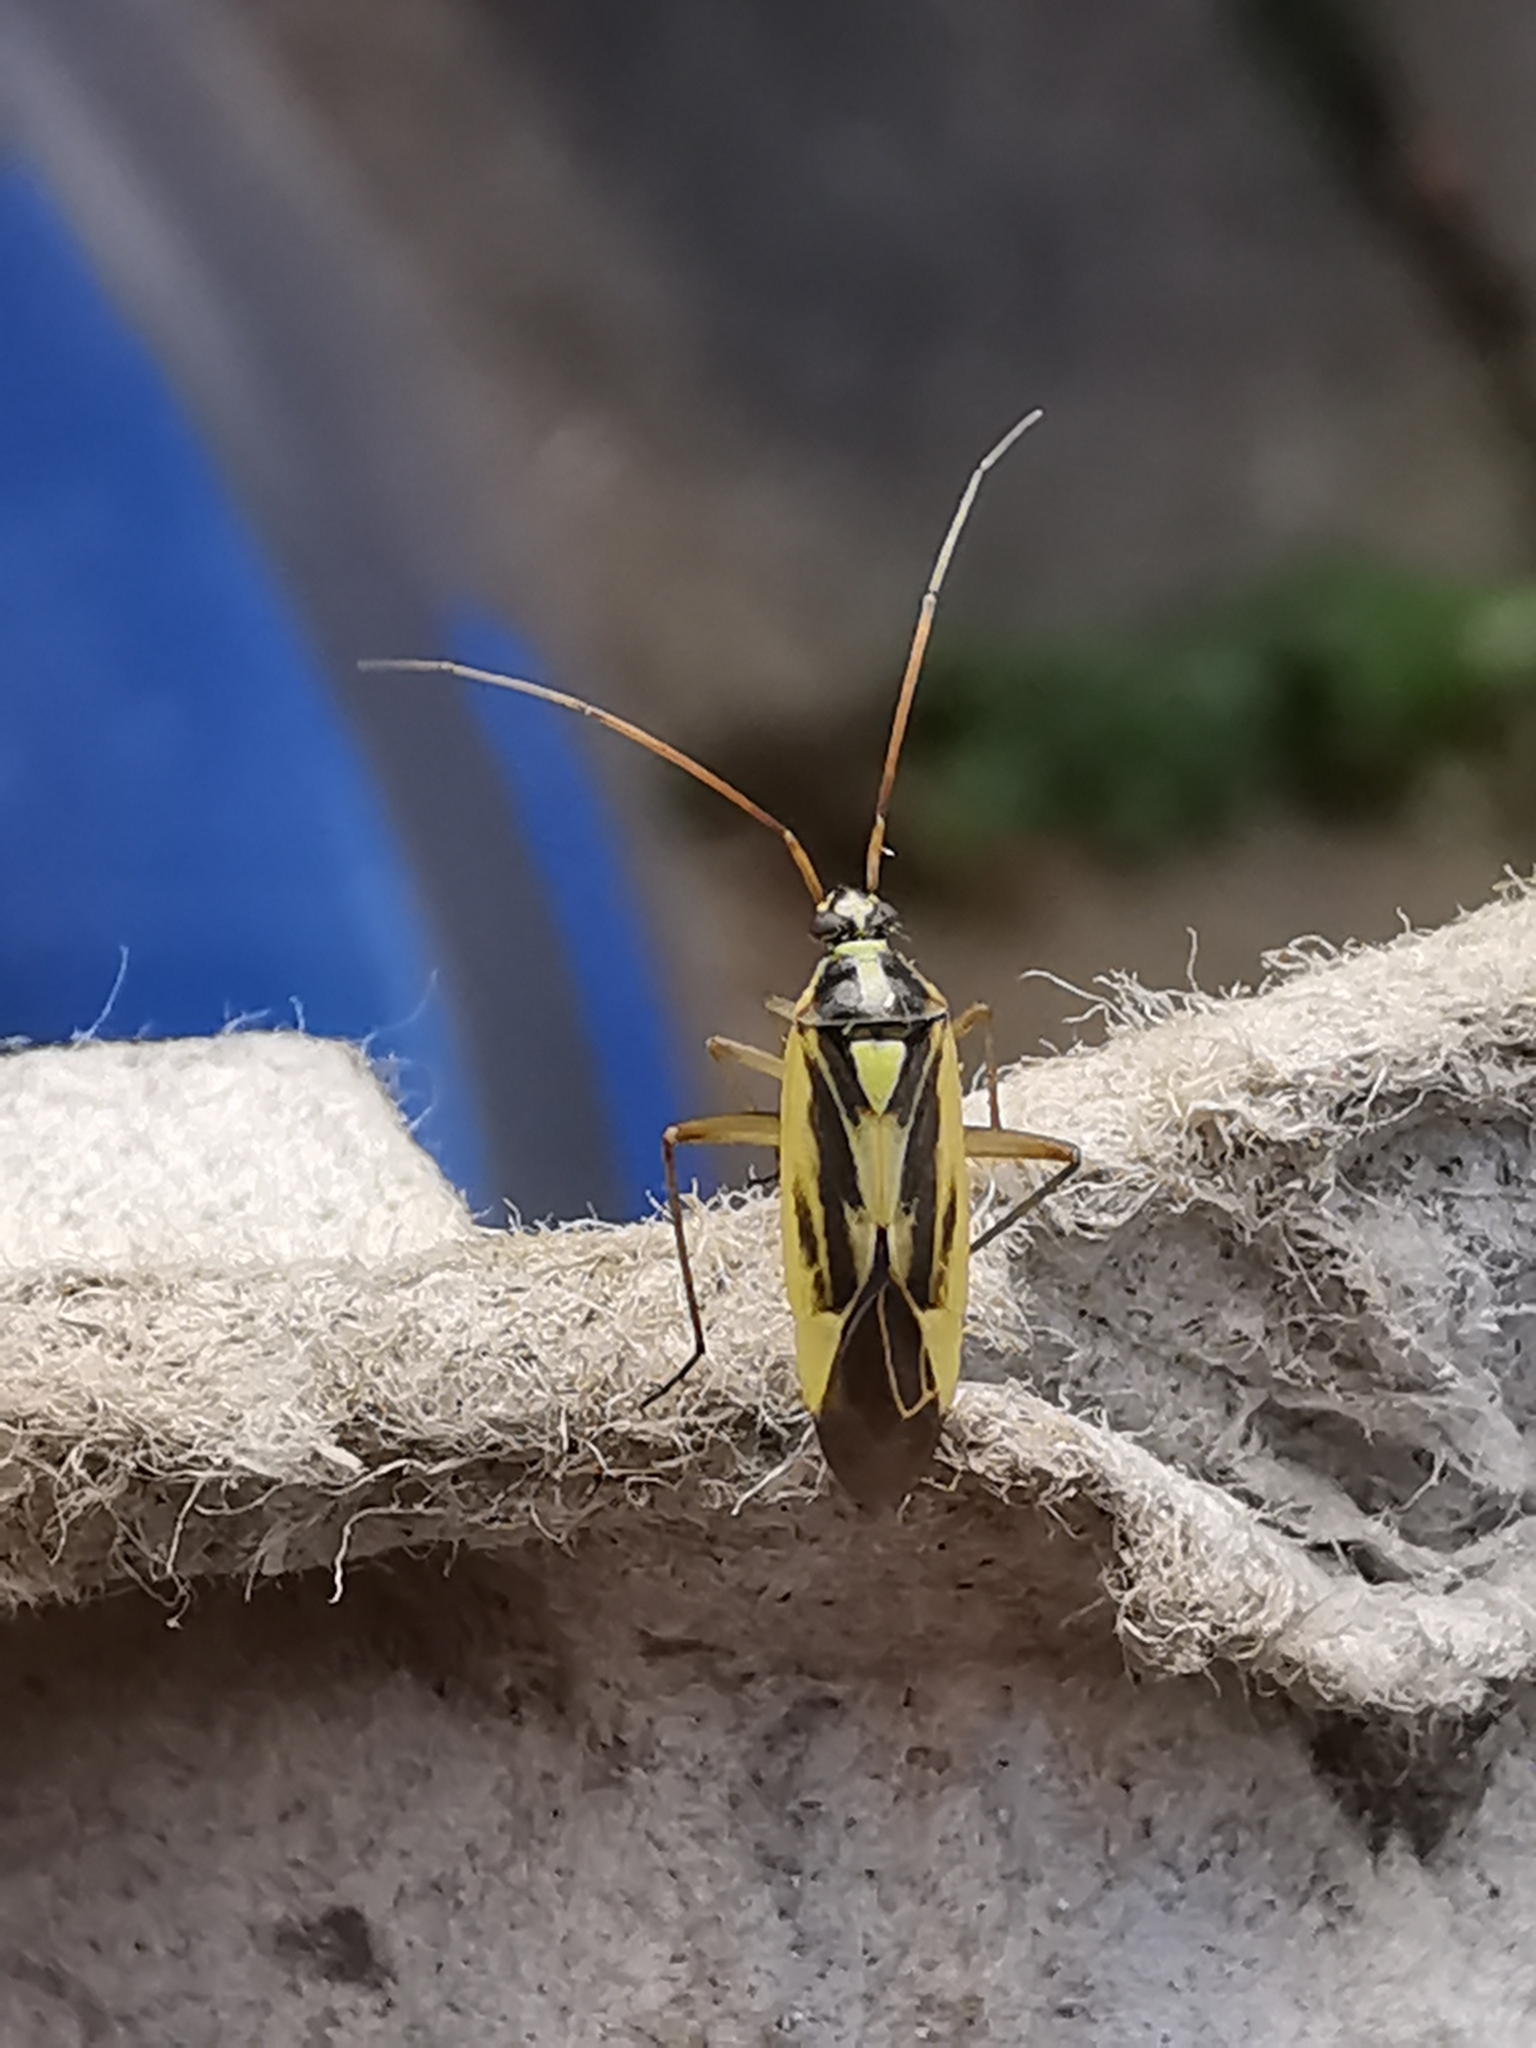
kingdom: Animalia
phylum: Arthropoda
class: Insecta
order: Hemiptera
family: Miridae
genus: Stenotus
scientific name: Stenotus binotatus
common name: Plant bug
